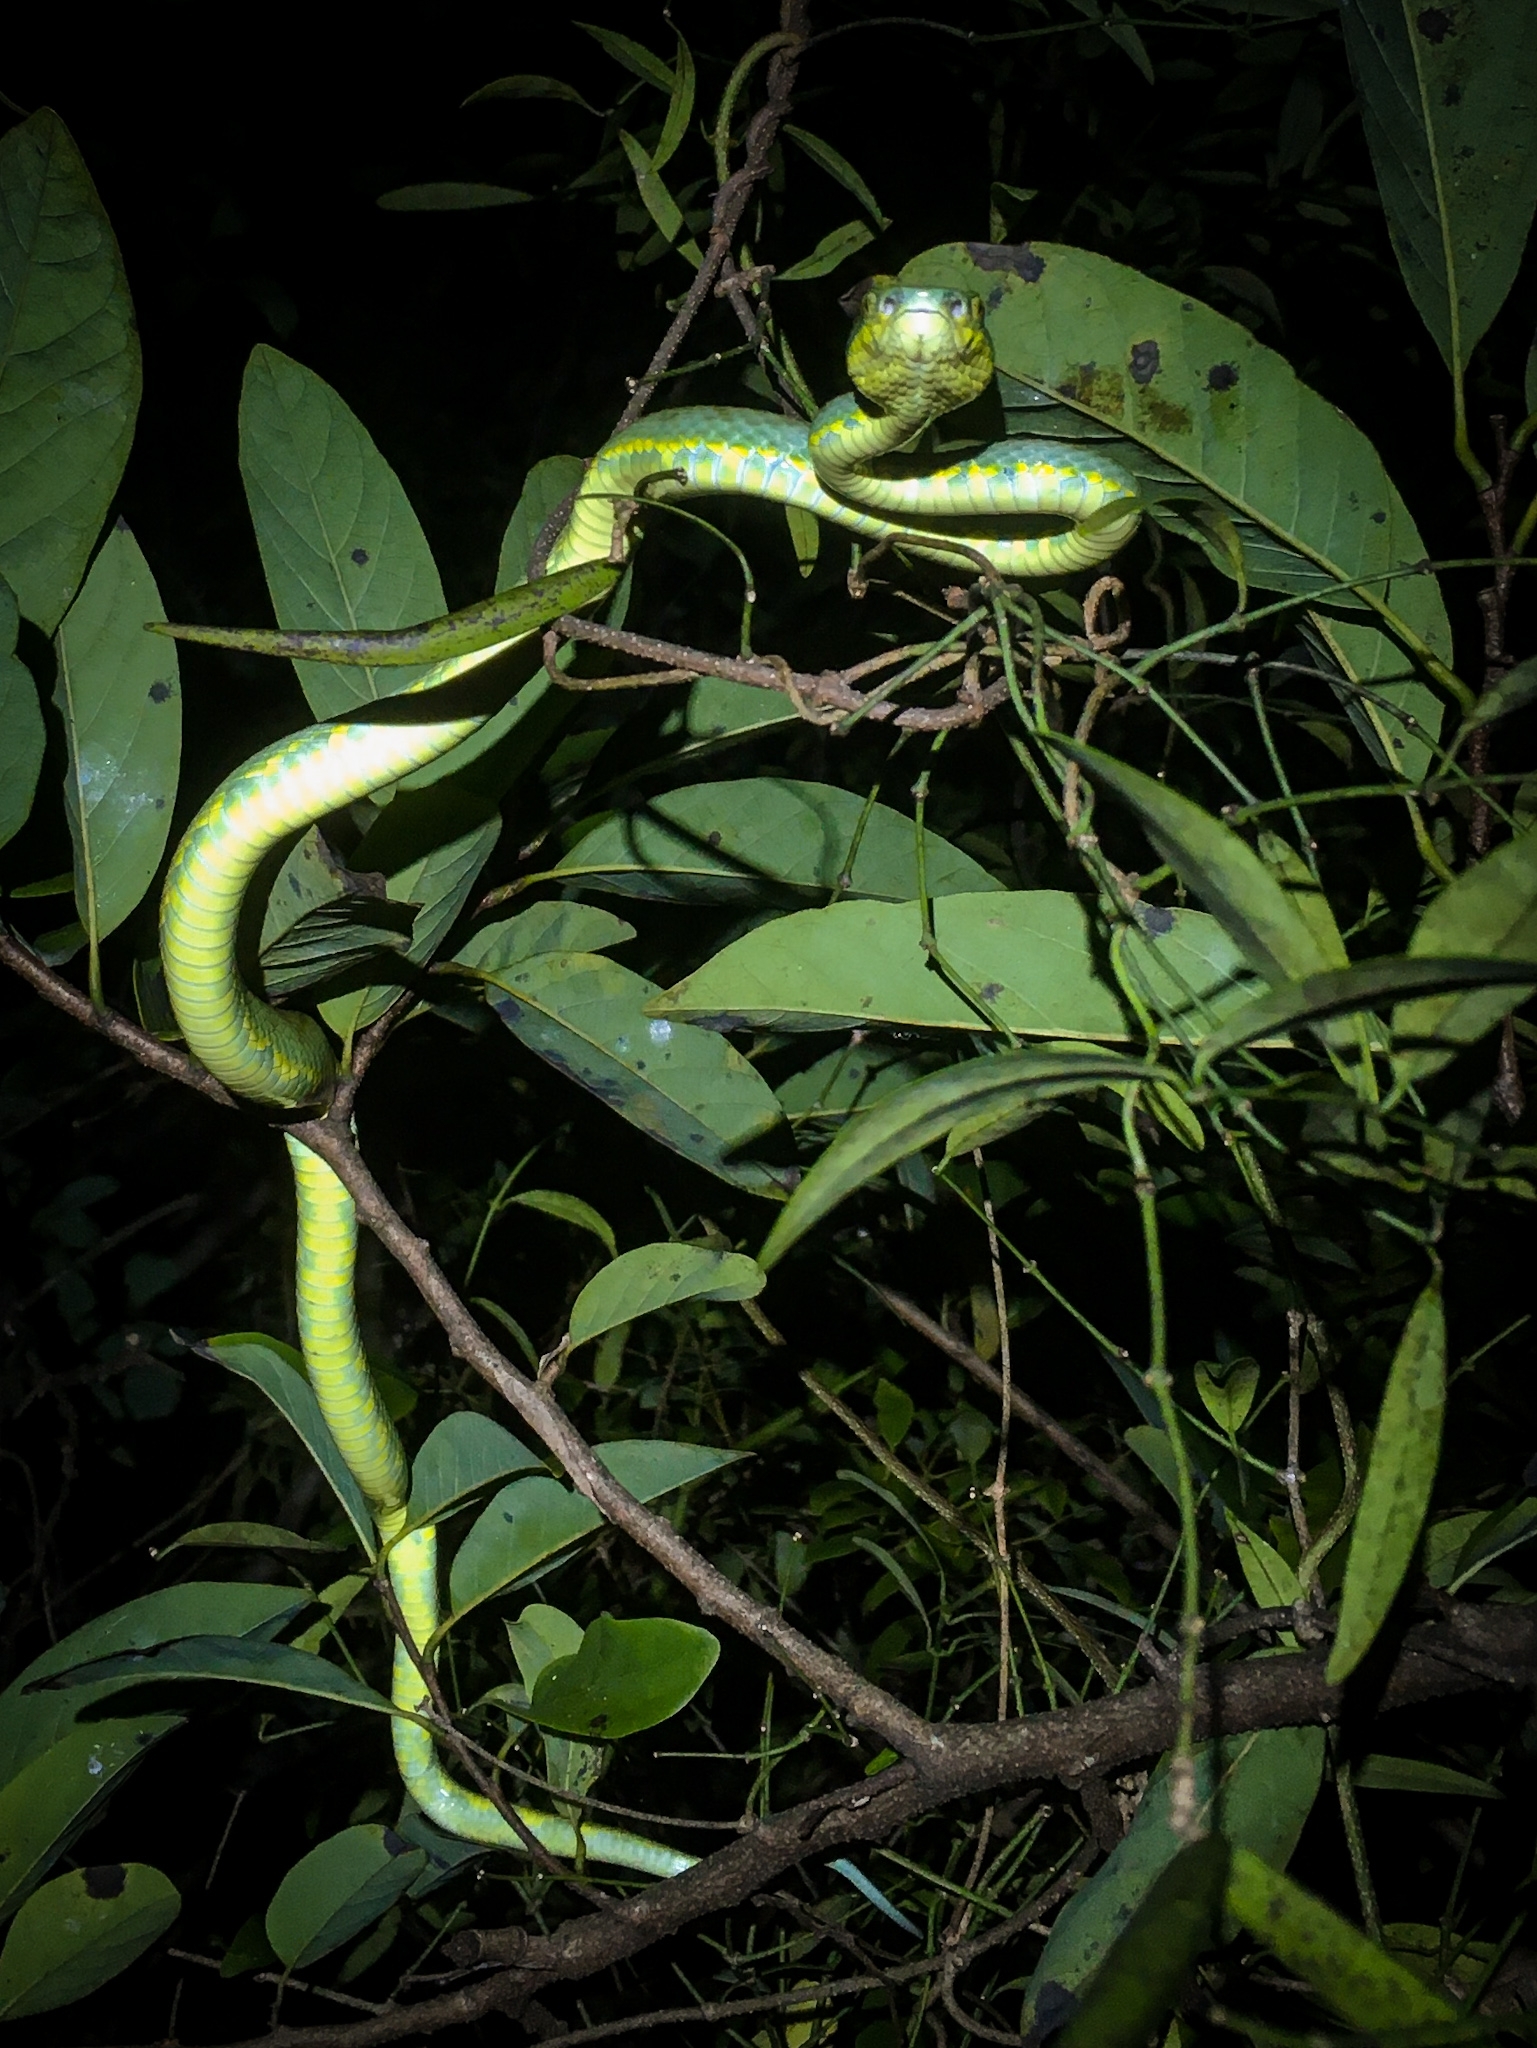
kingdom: Animalia
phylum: Chordata
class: Squamata
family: Viperidae
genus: Craspedocephalus
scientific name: Craspedocephalus gramineus
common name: Common bamboo viper
